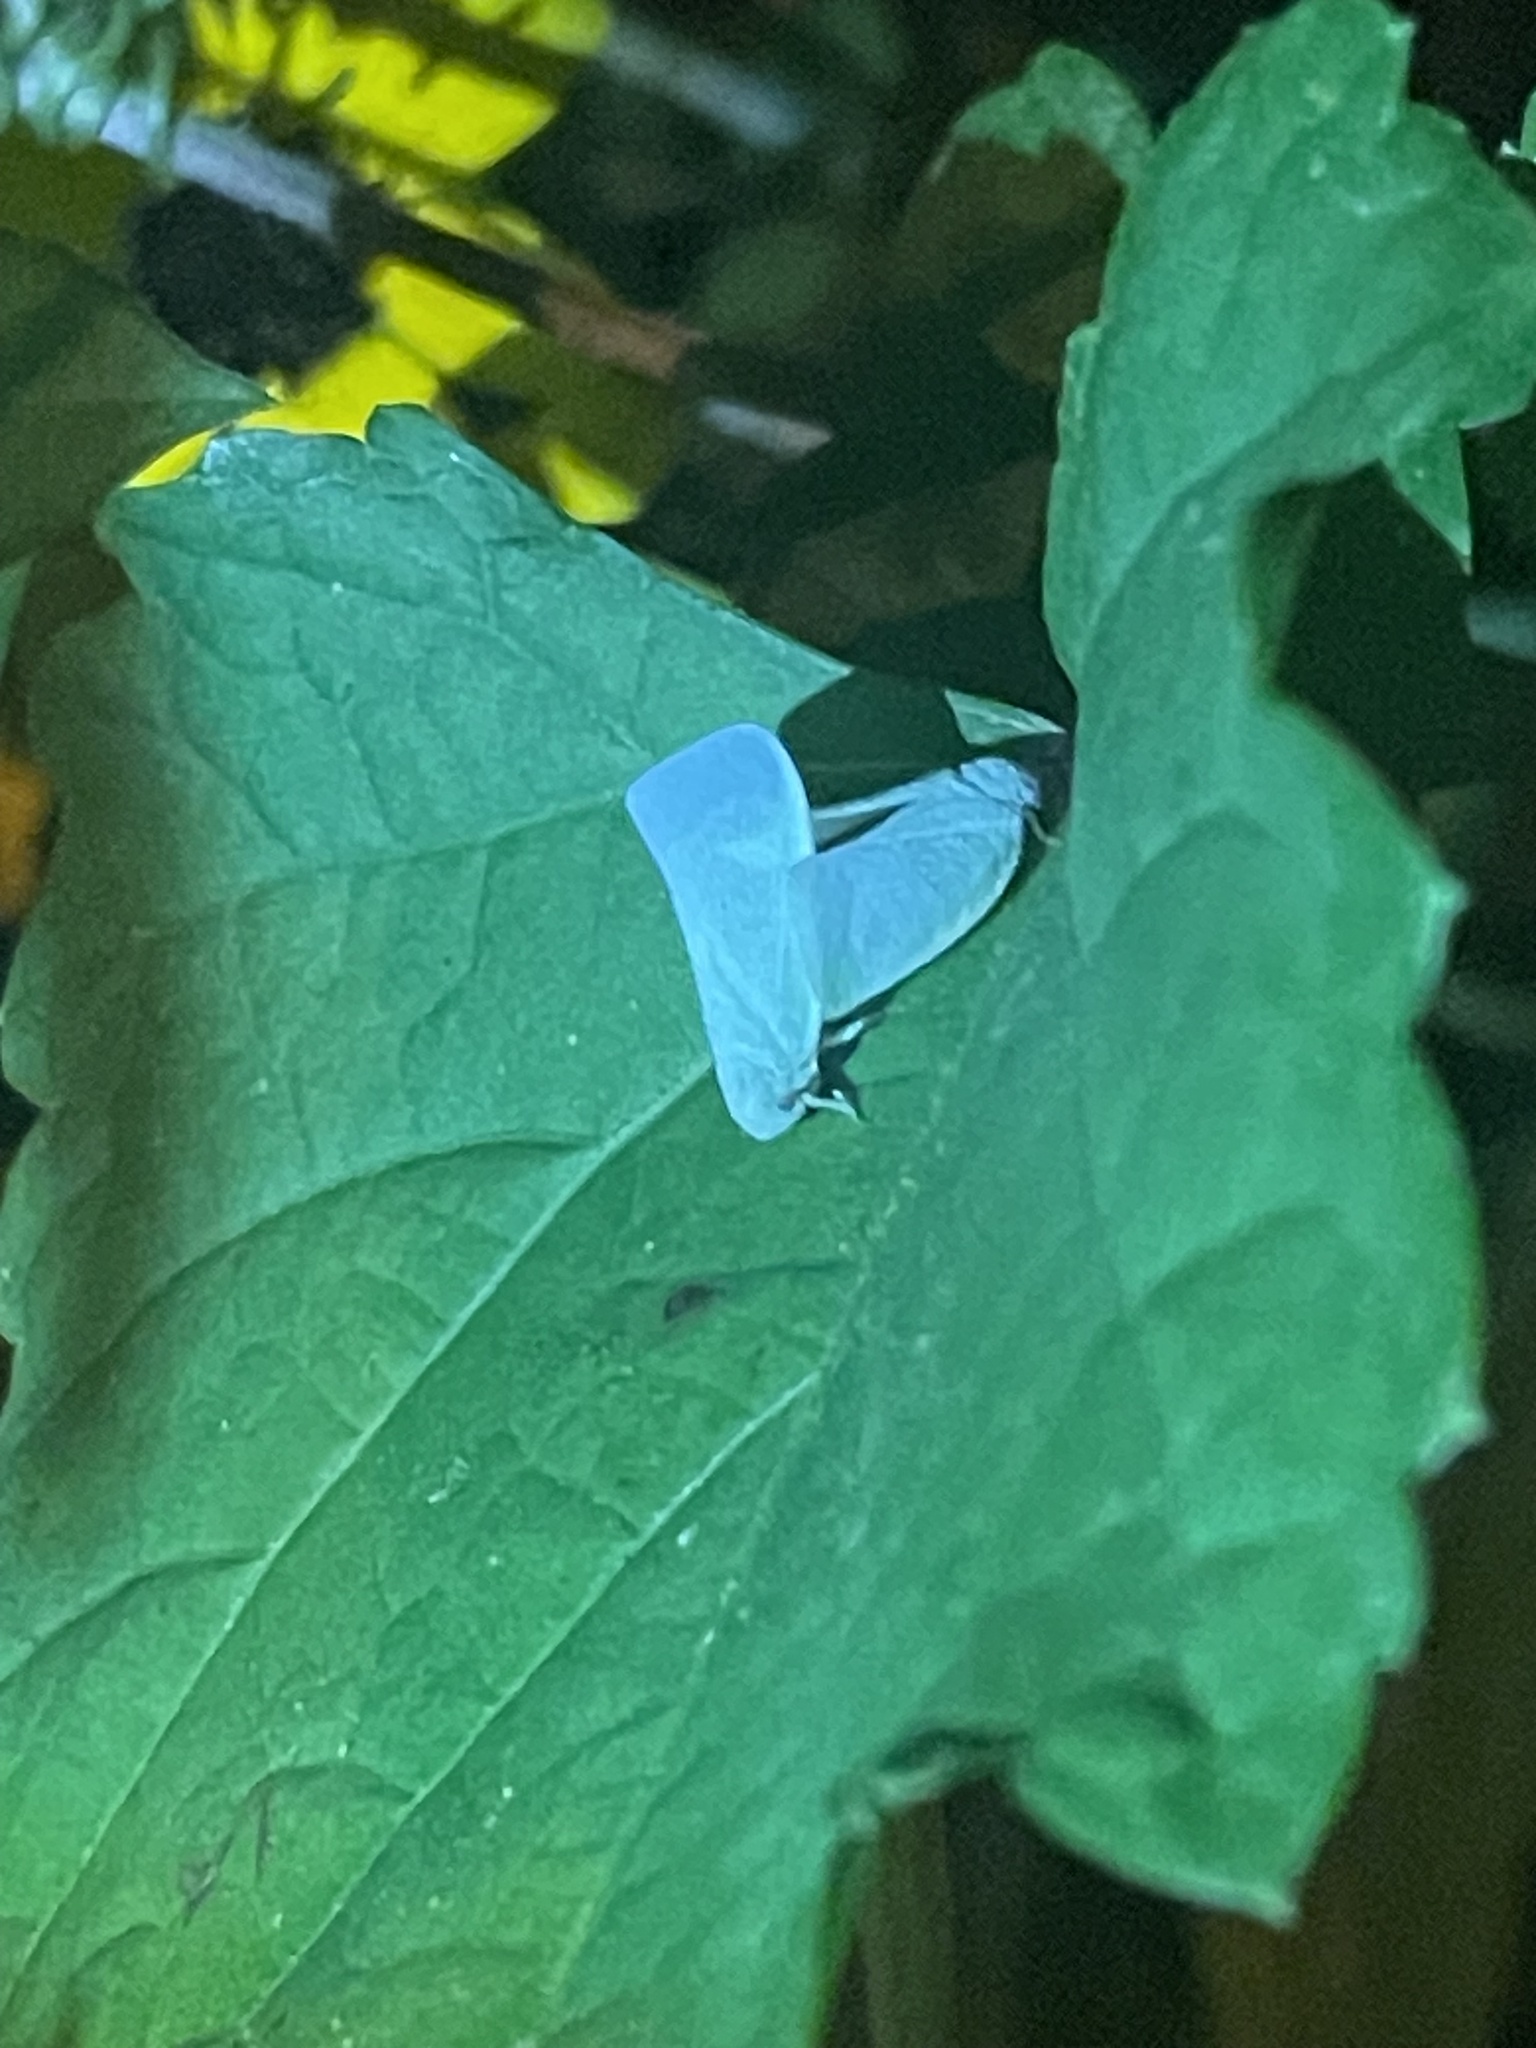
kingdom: Animalia
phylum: Arthropoda
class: Insecta
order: Hemiptera
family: Flatidae
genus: Flatormenis
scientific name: Flatormenis proxima
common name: Northern flatid planthopper
